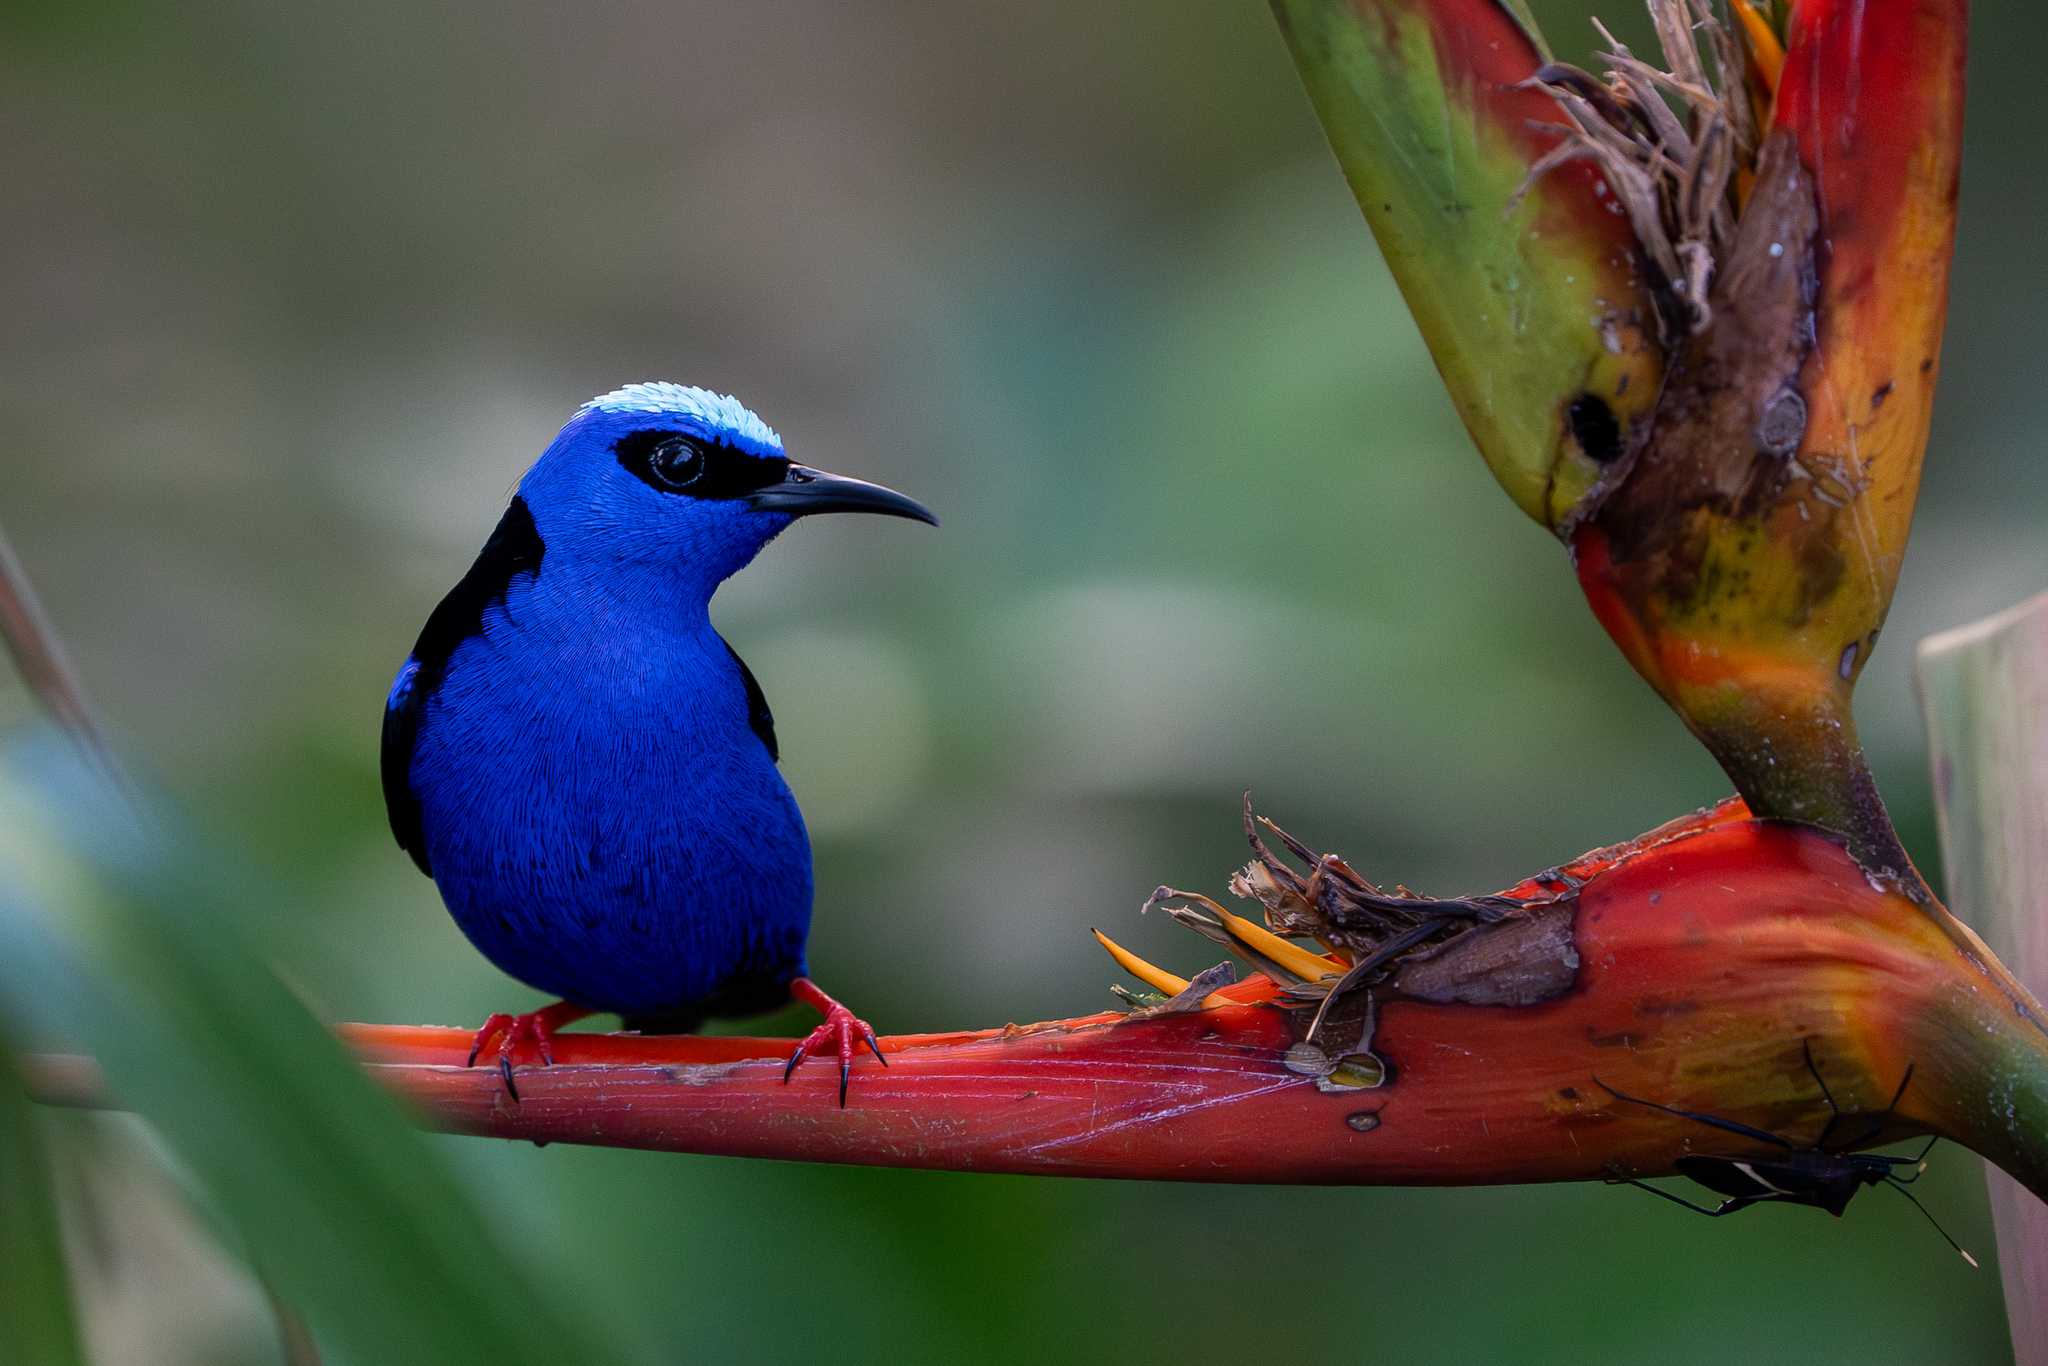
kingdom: Animalia
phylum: Chordata
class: Aves
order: Passeriformes
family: Thraupidae
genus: Cyanerpes
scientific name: Cyanerpes cyaneus
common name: Red-legged honeycreeper
